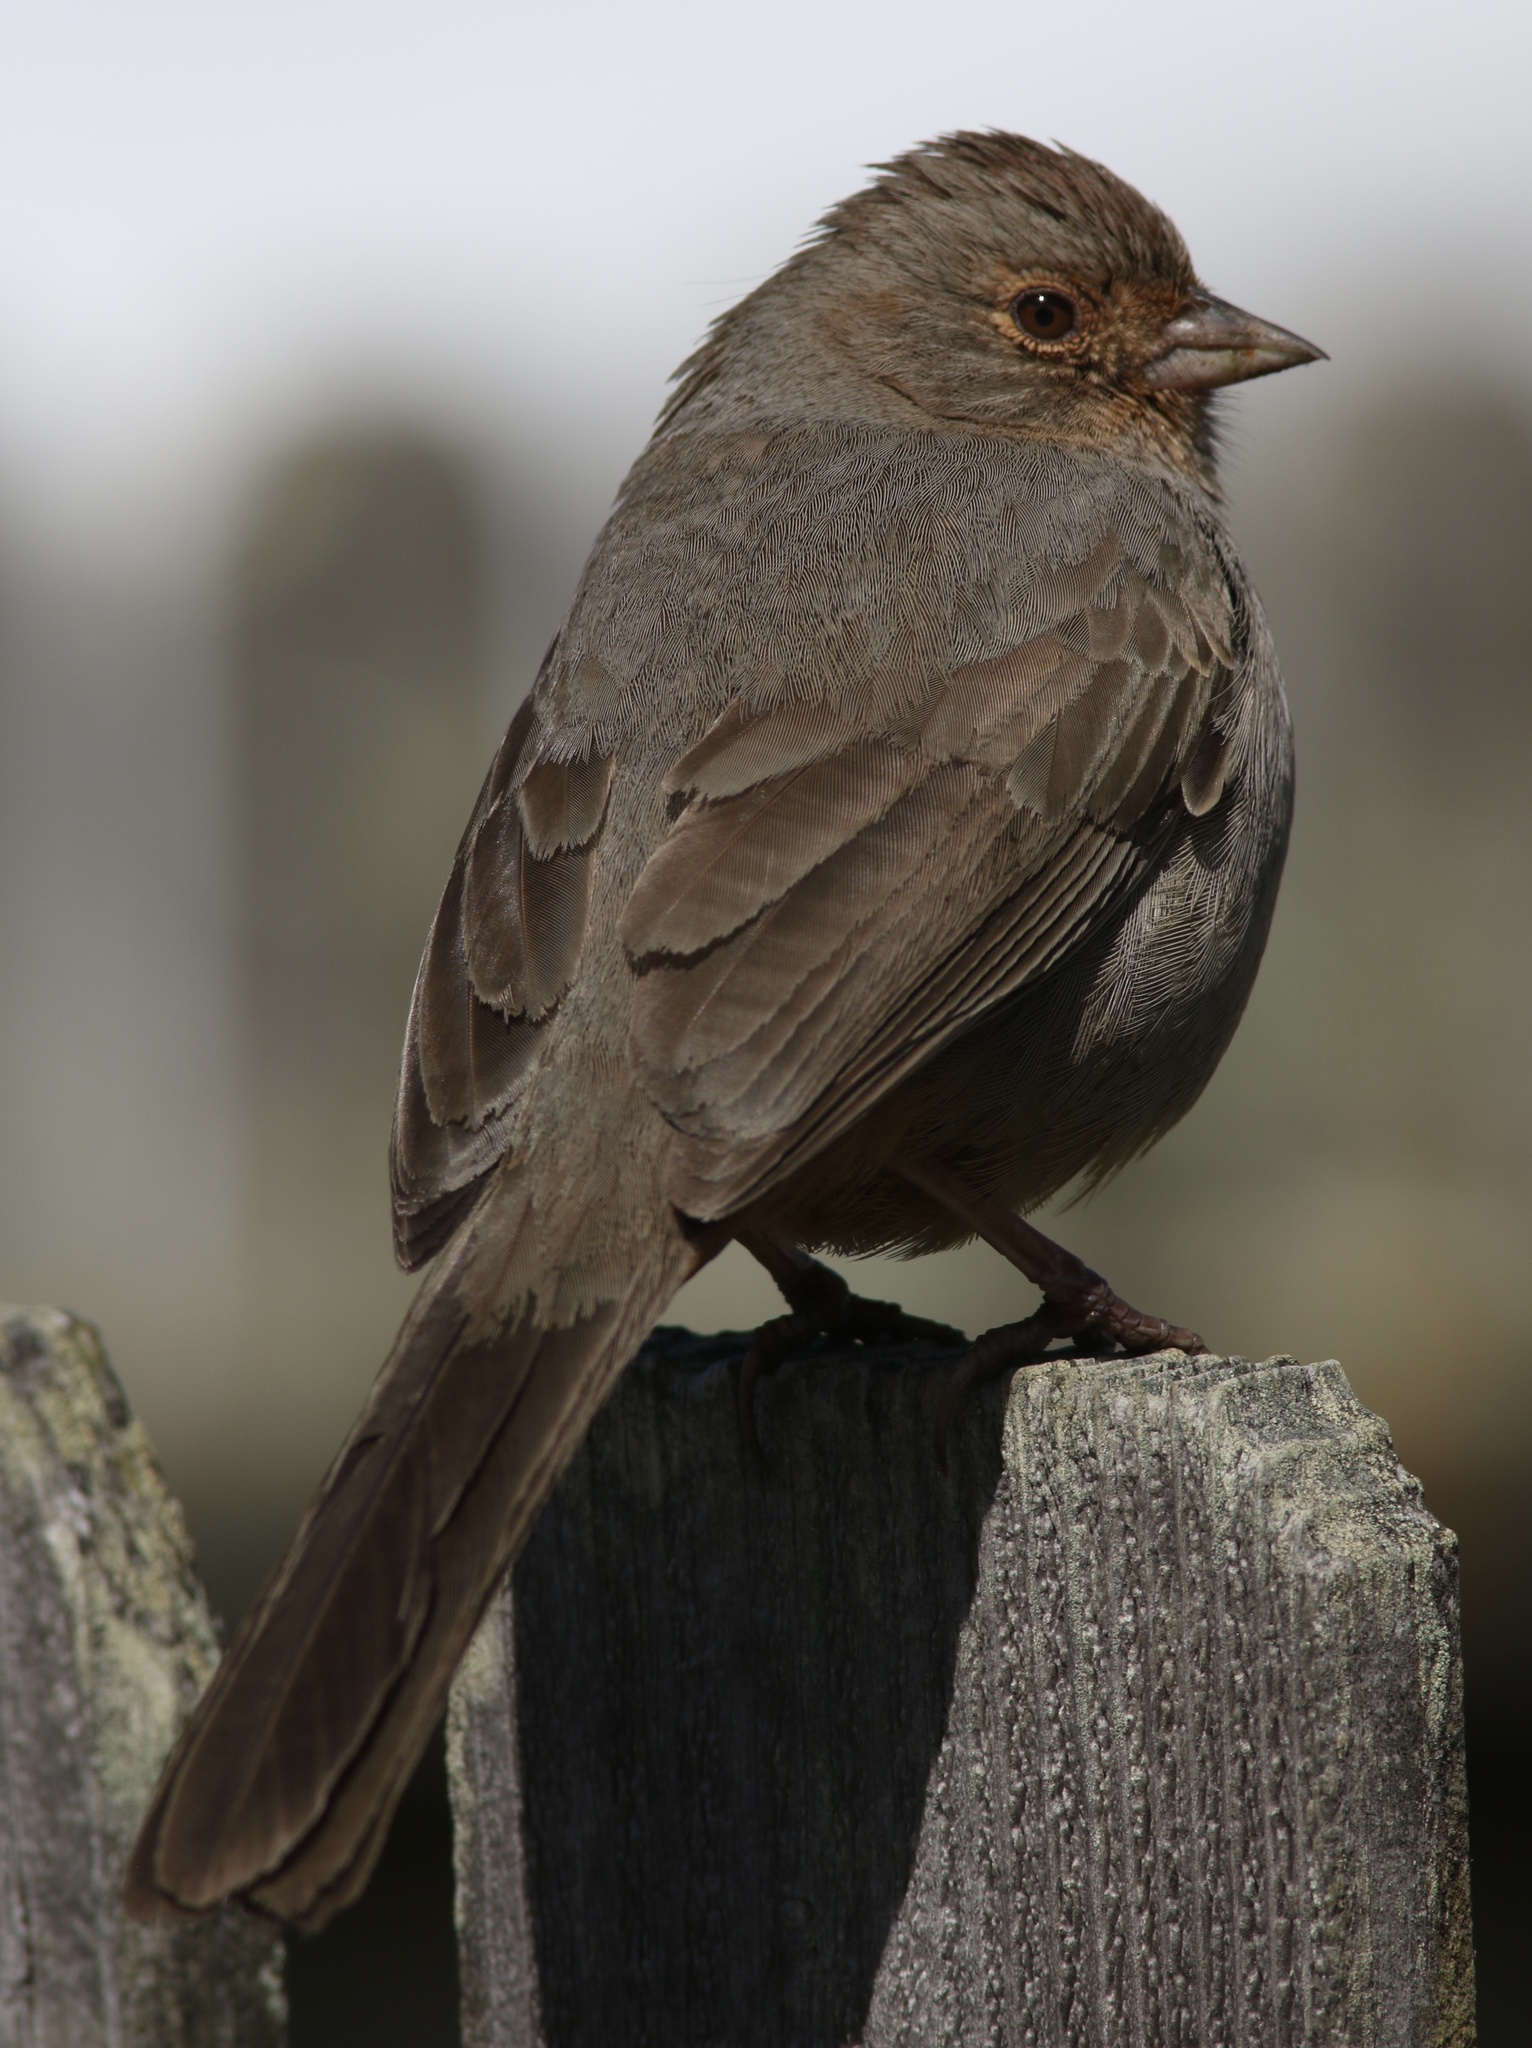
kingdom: Animalia
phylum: Chordata
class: Aves
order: Passeriformes
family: Passerellidae
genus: Melozone
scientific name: Melozone crissalis
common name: California towhee
